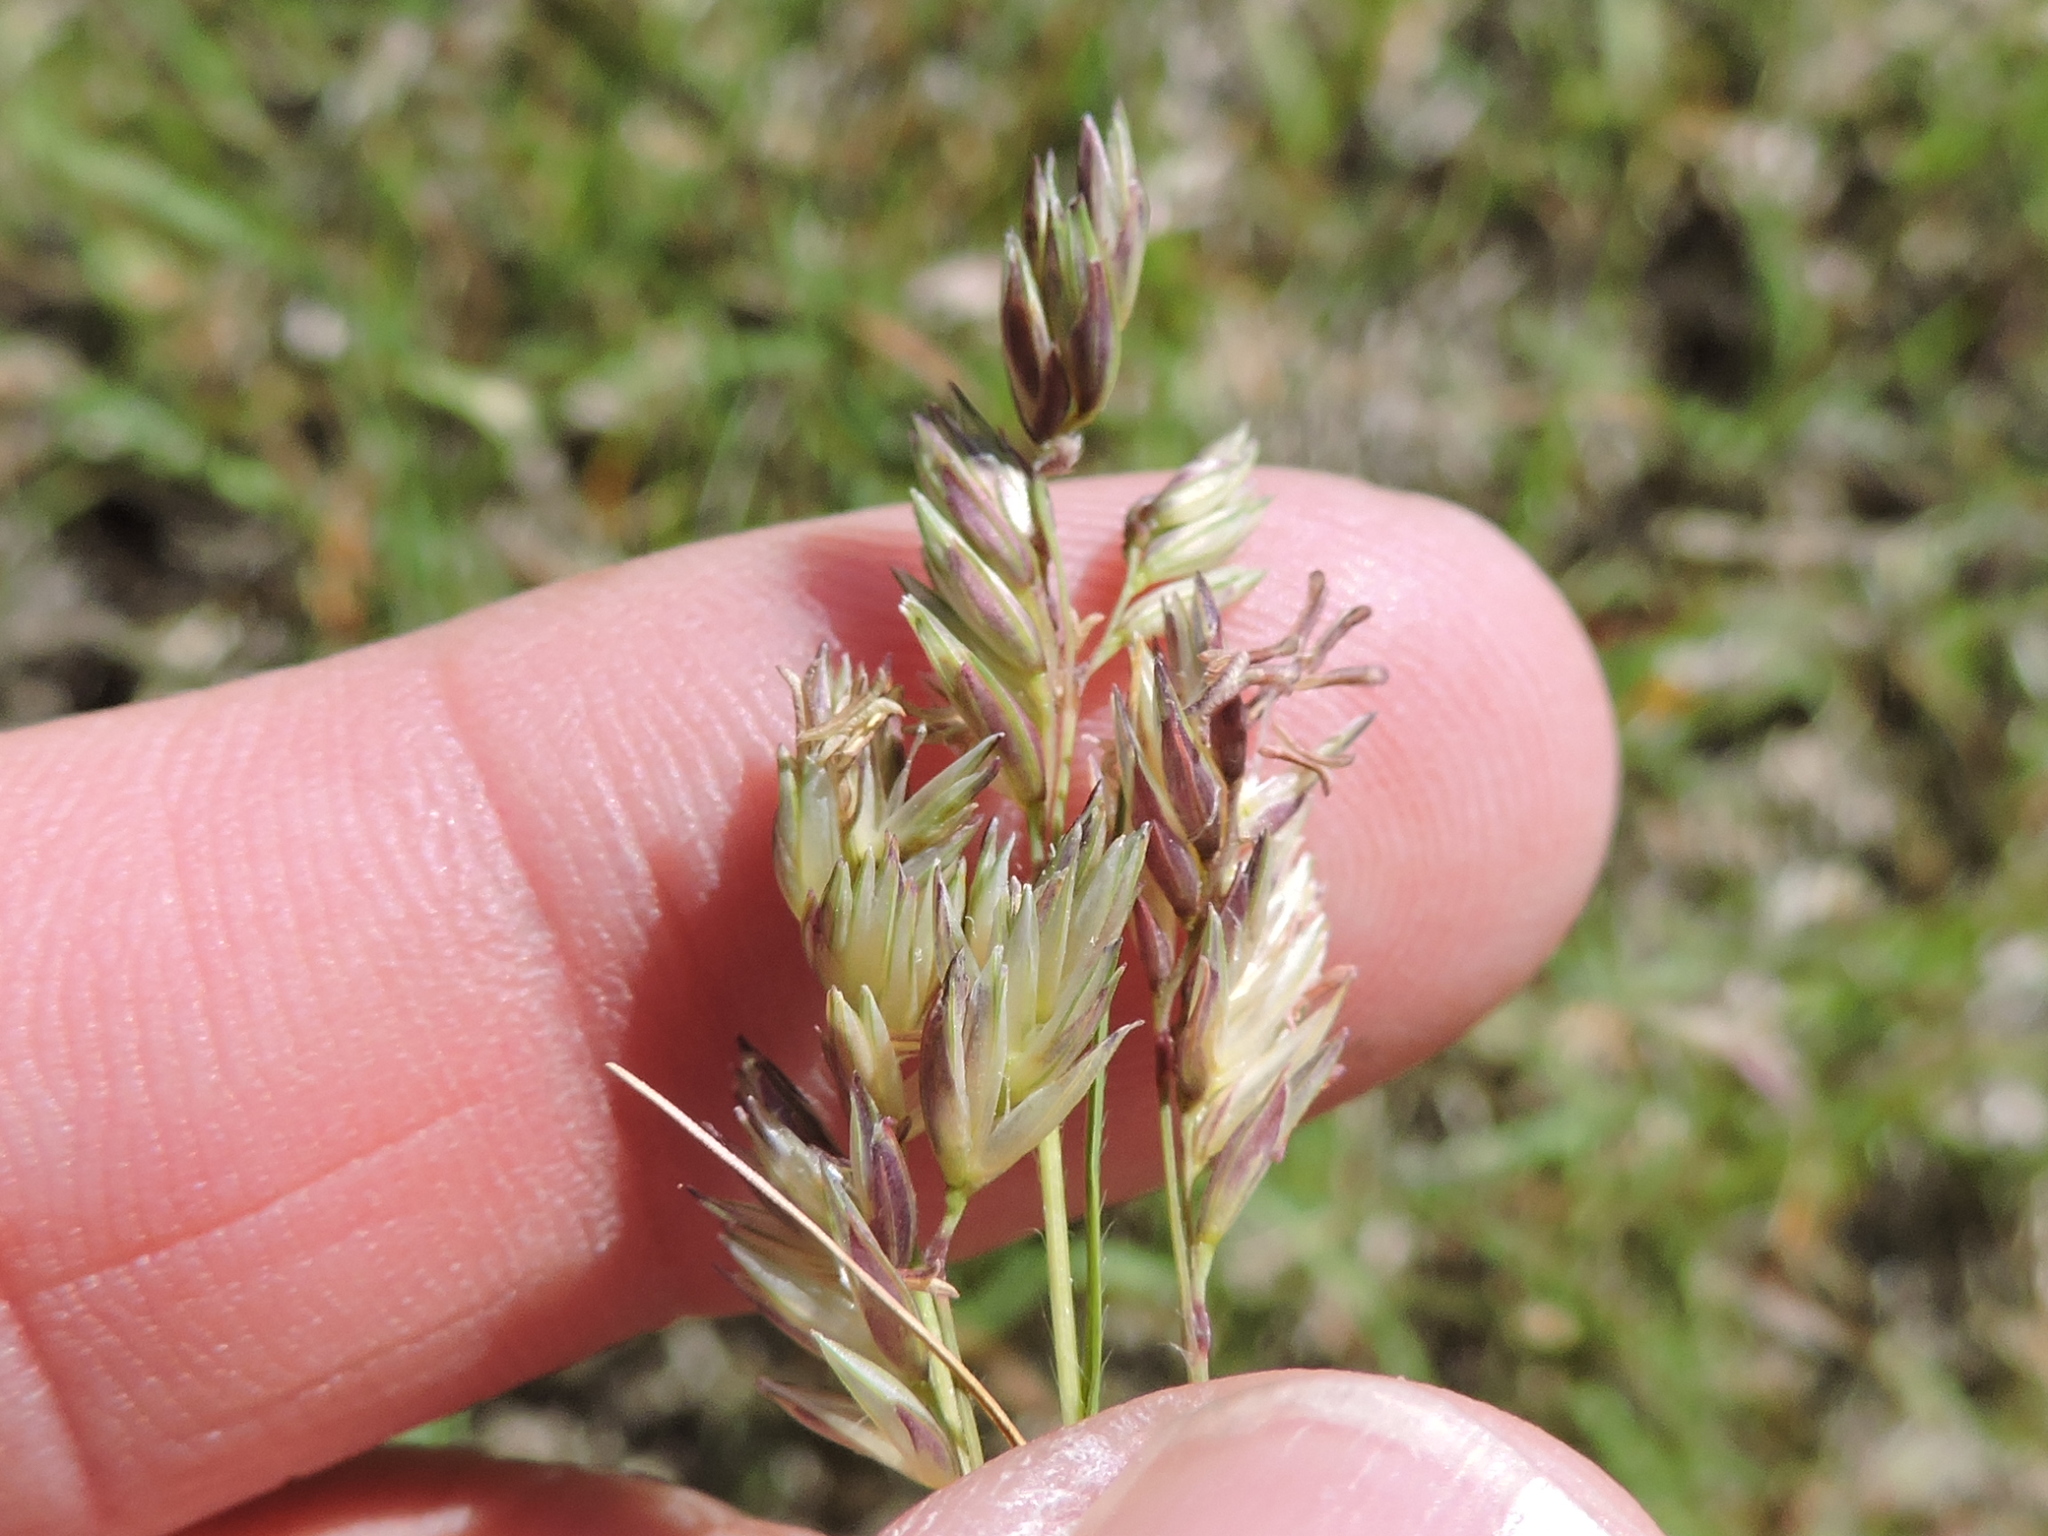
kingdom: Plantae
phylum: Tracheophyta
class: Liliopsida
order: Poales
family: Poaceae
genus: Bouteloua
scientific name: Bouteloua dactyloides
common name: Buffalo grass
